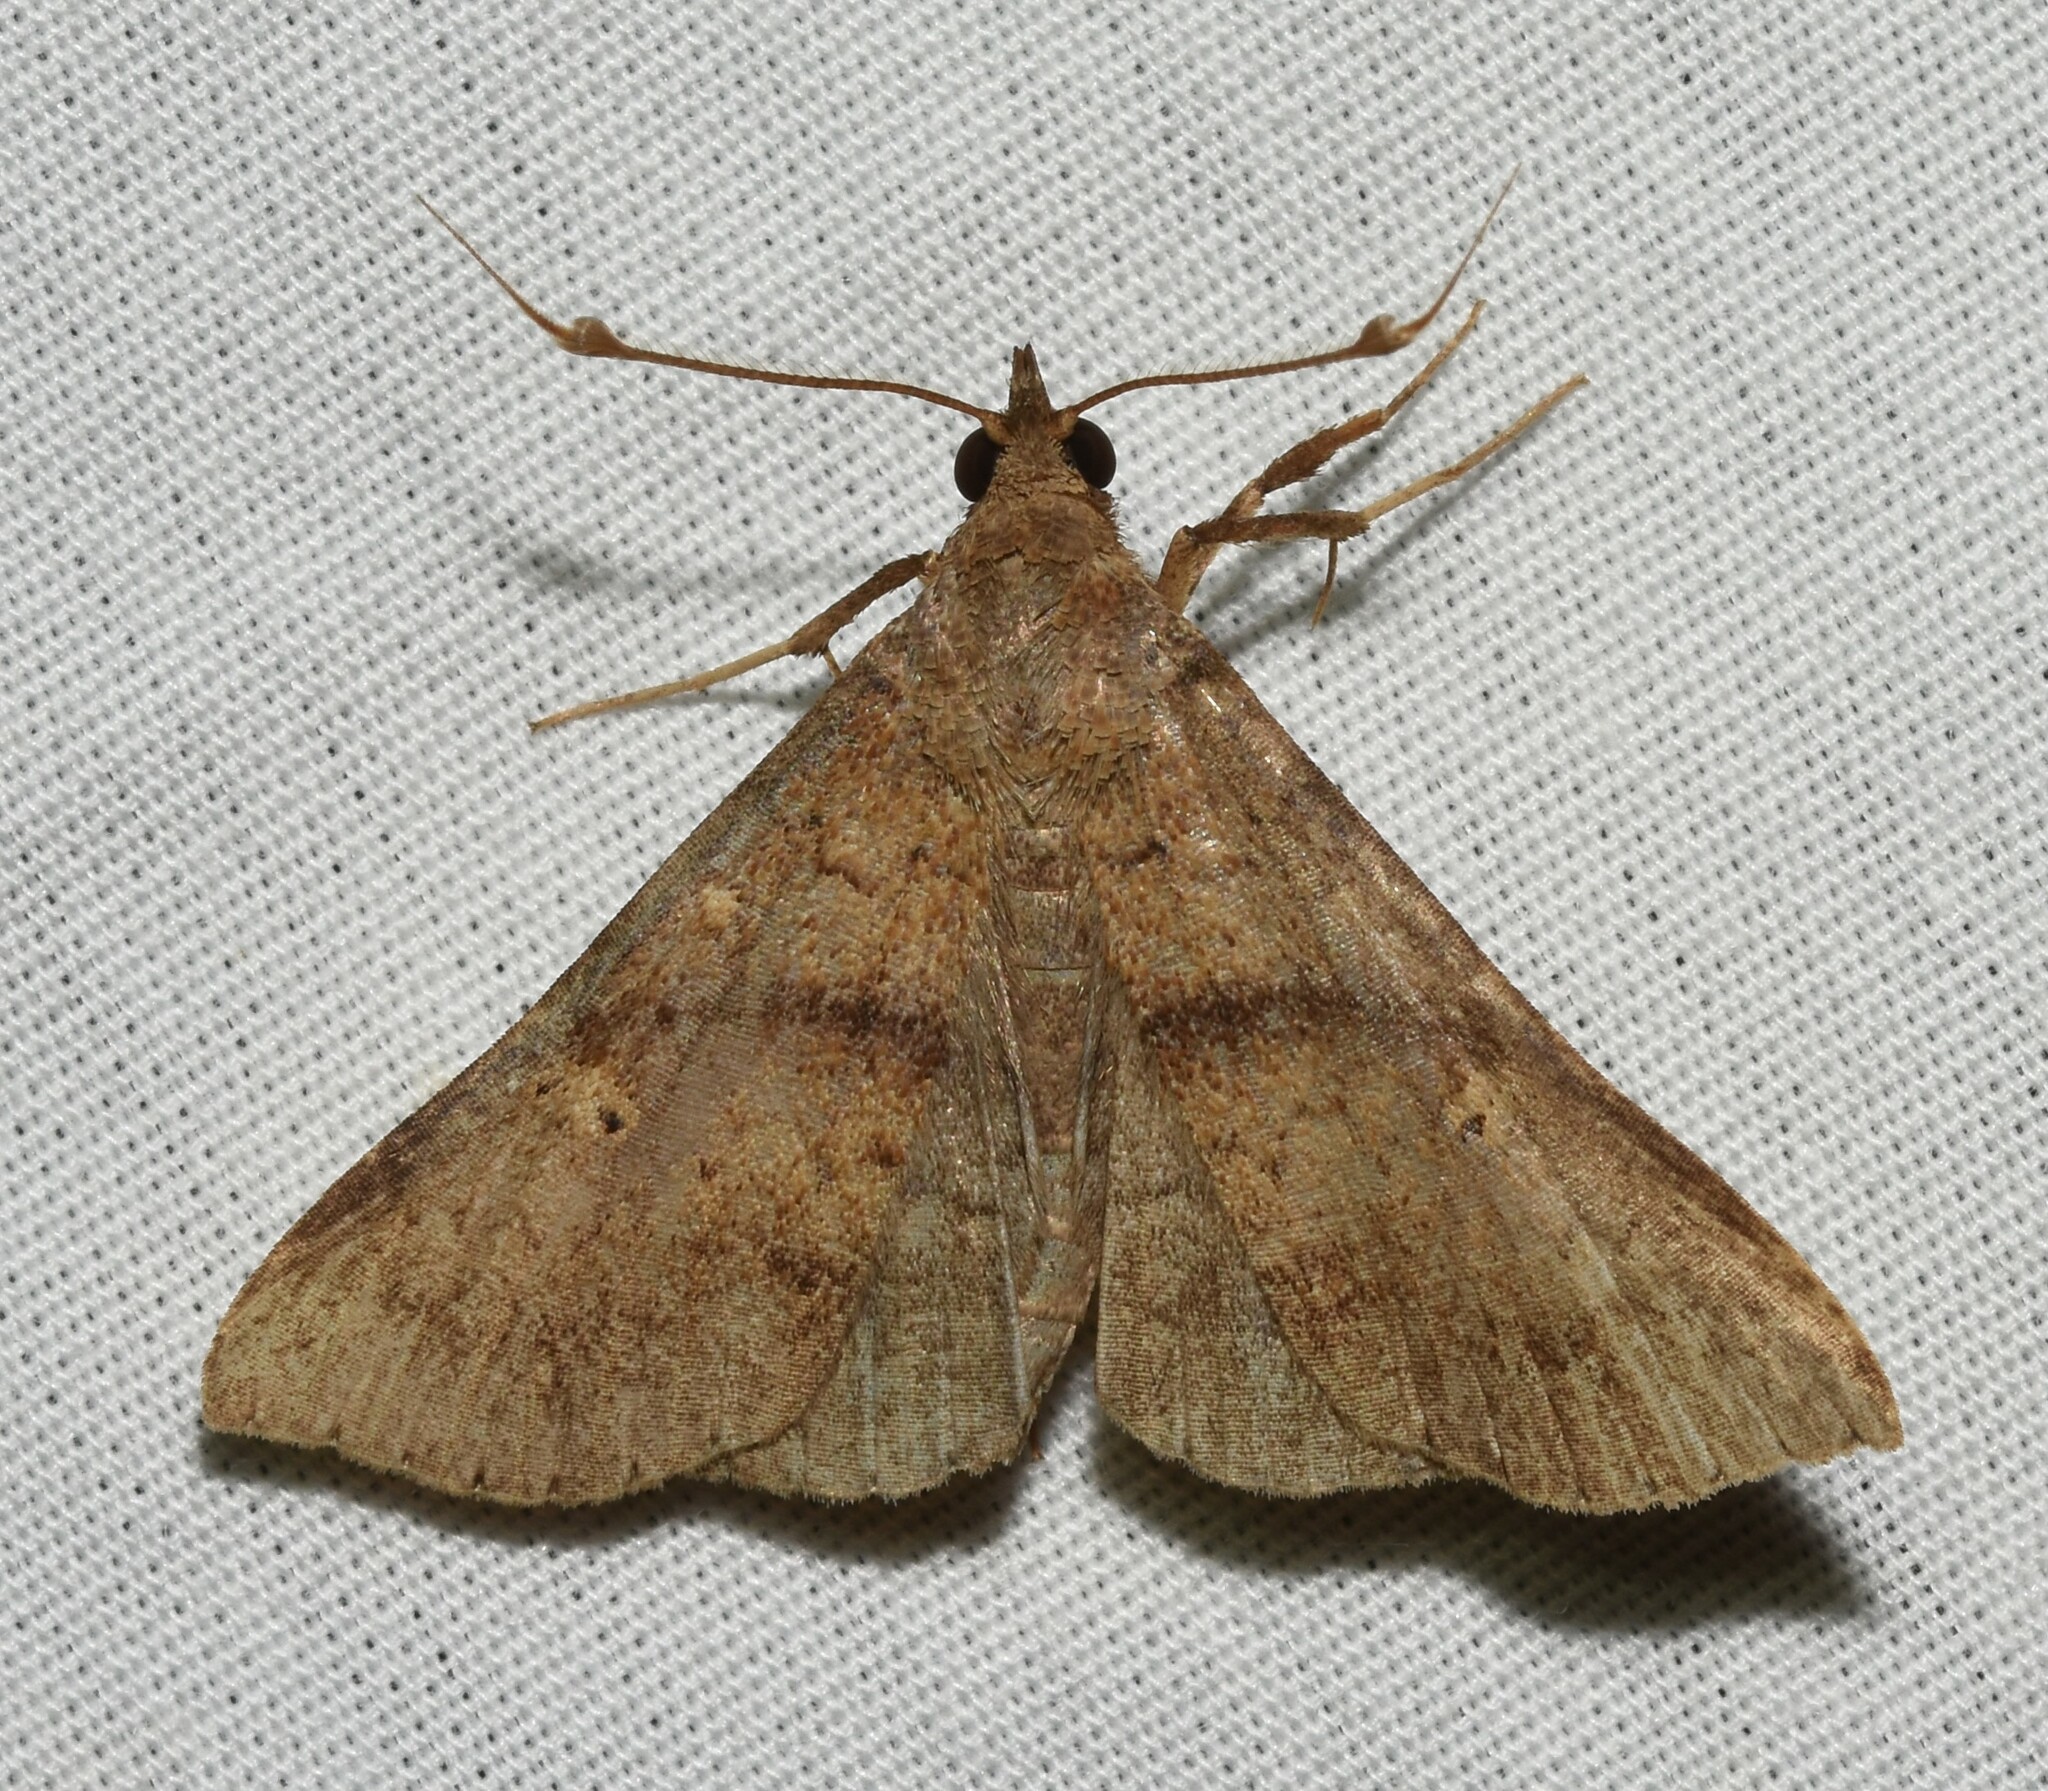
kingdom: Animalia
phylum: Arthropoda
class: Insecta
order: Lepidoptera
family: Erebidae
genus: Renia
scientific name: Renia discoloralis
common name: Discolored renia moth
